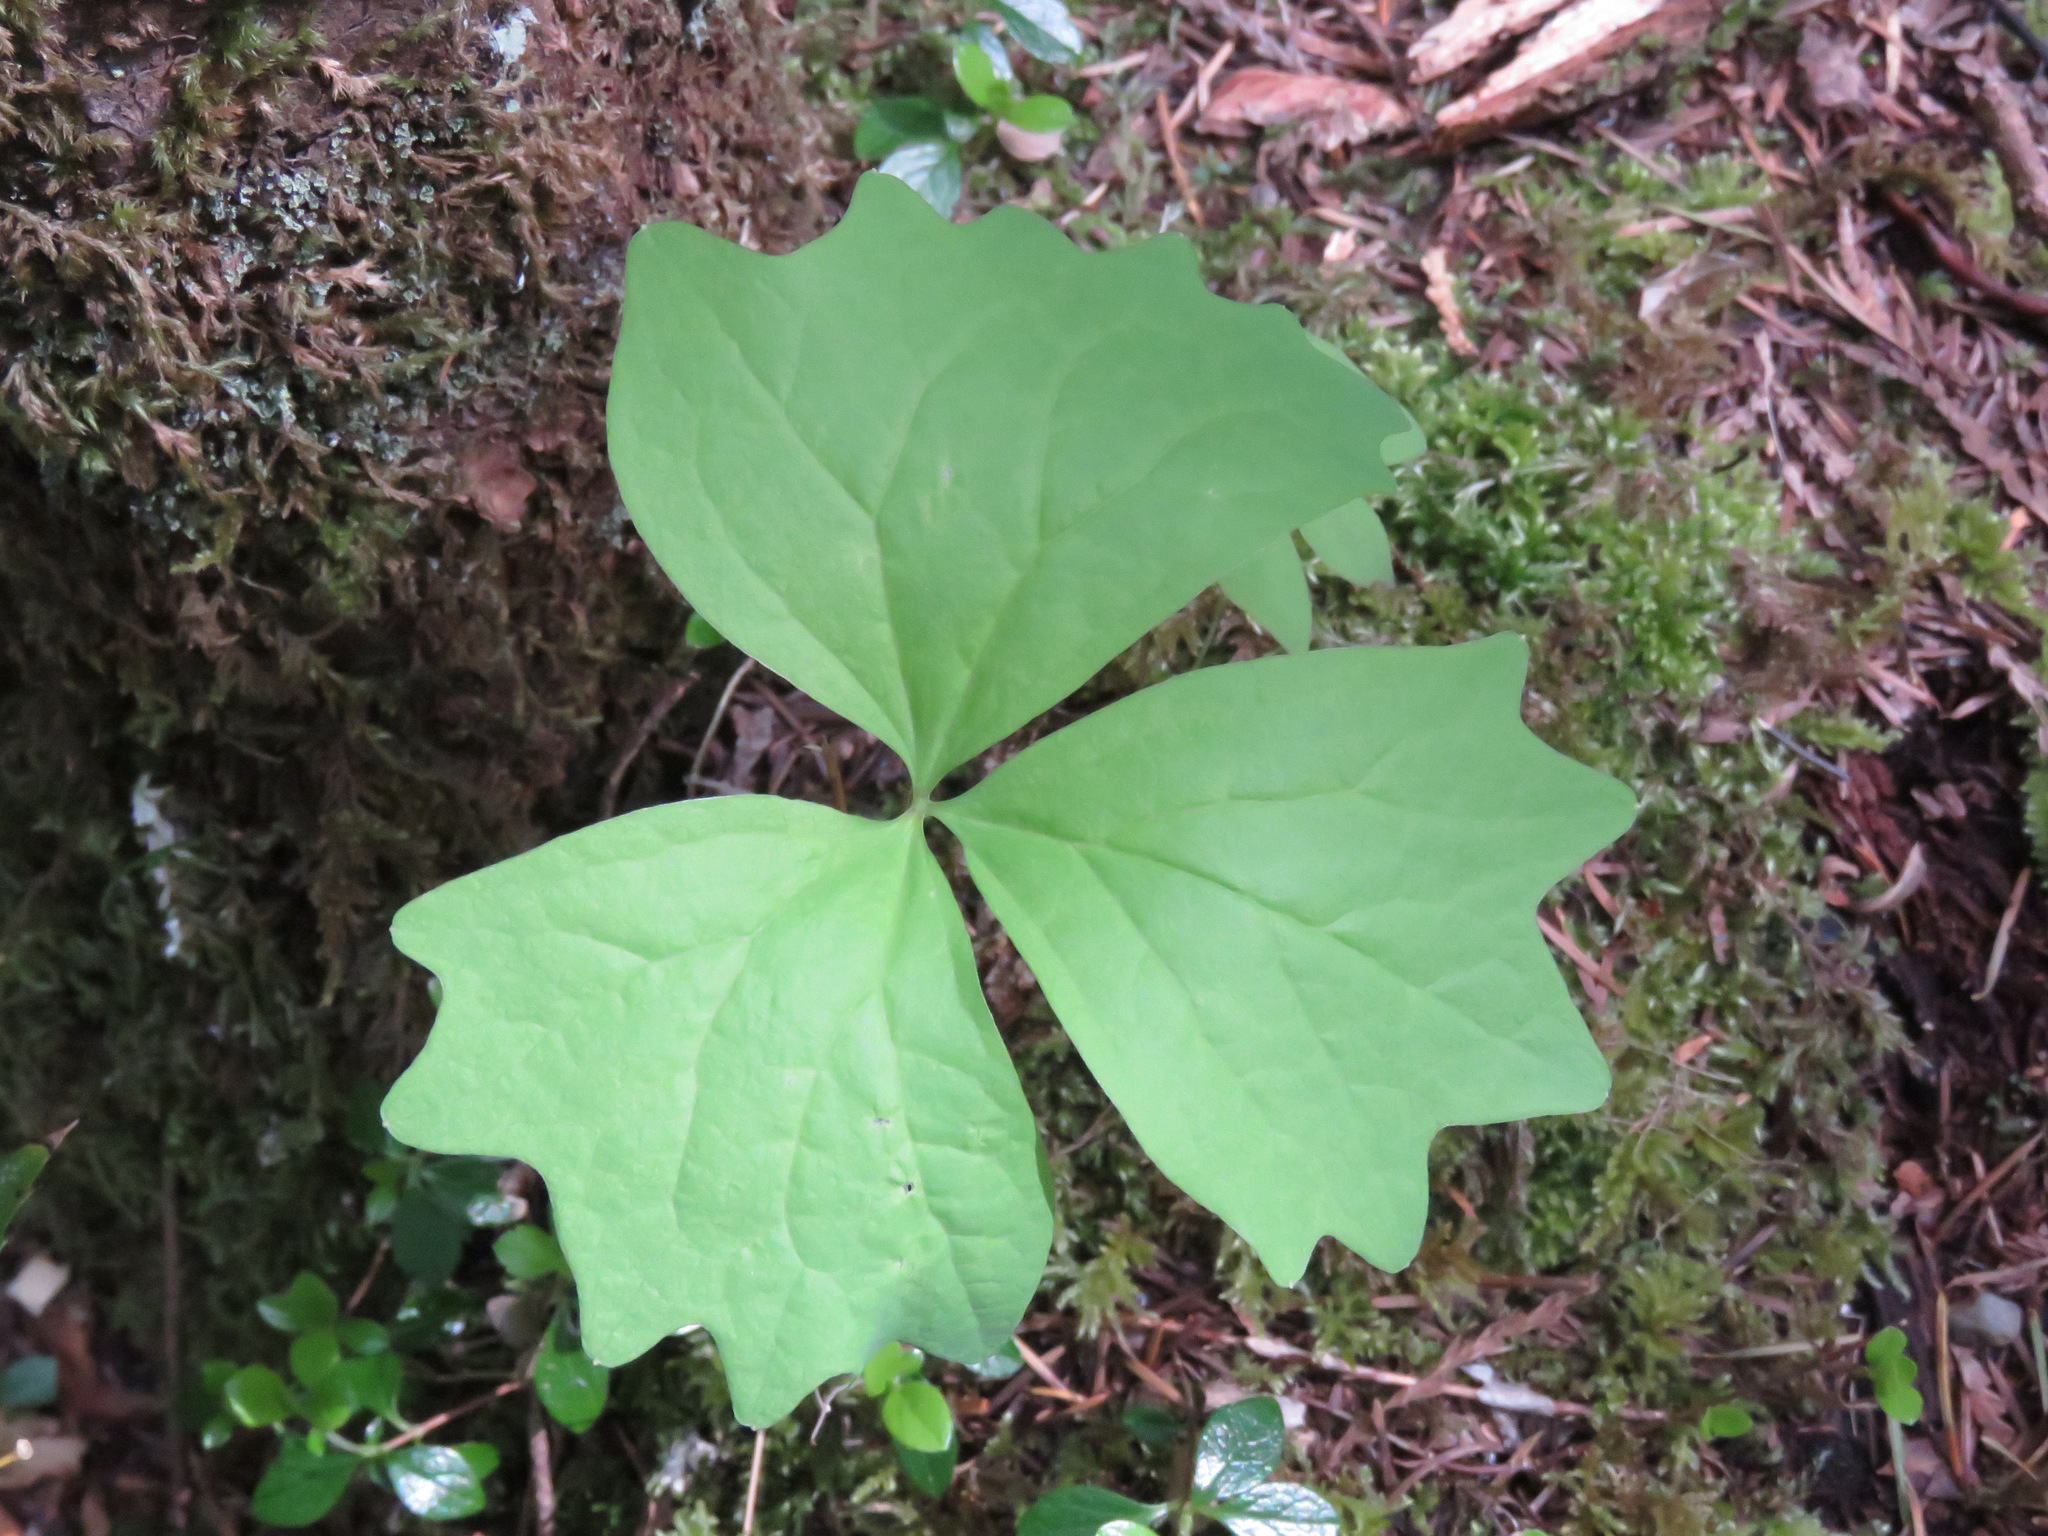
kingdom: Plantae
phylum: Tracheophyta
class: Magnoliopsida
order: Ranunculales
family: Berberidaceae
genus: Achlys
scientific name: Achlys triphylla
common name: Vanilla-leaf
